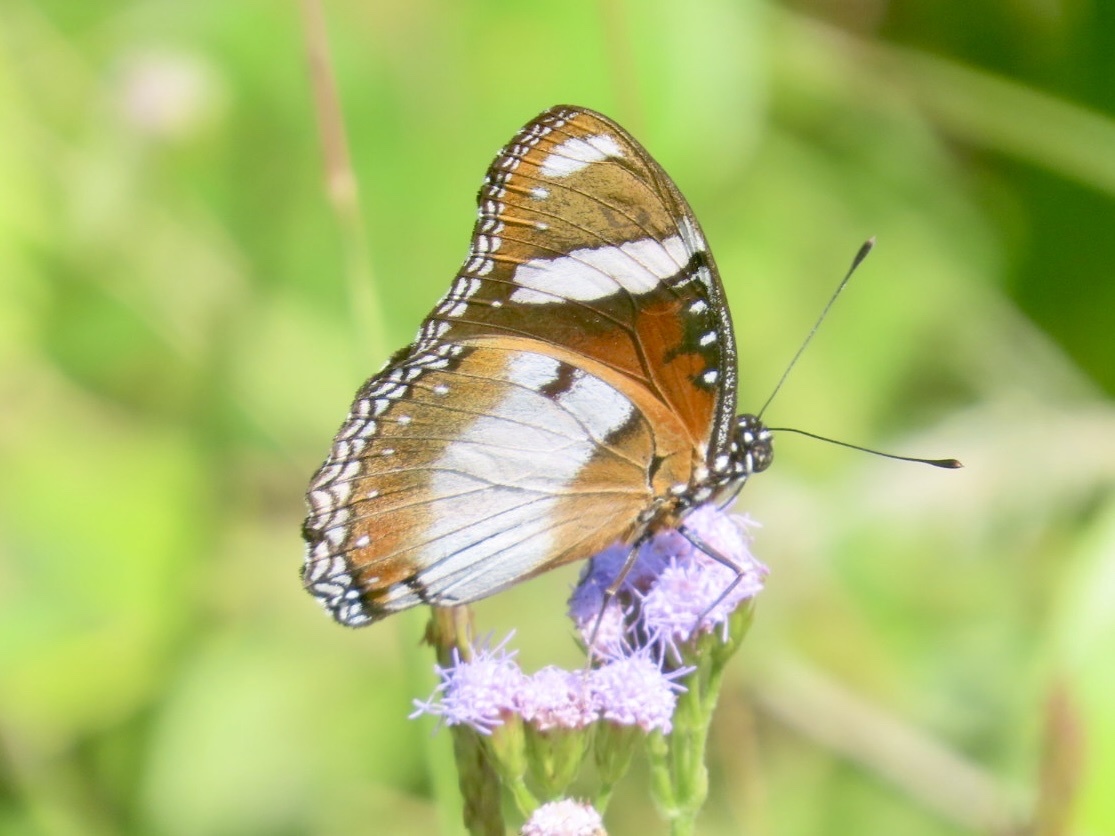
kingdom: Animalia
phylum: Arthropoda
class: Insecta
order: Lepidoptera
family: Nymphalidae
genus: Hypolimnas
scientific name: Hypolimnas misippus
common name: False plain tiger
